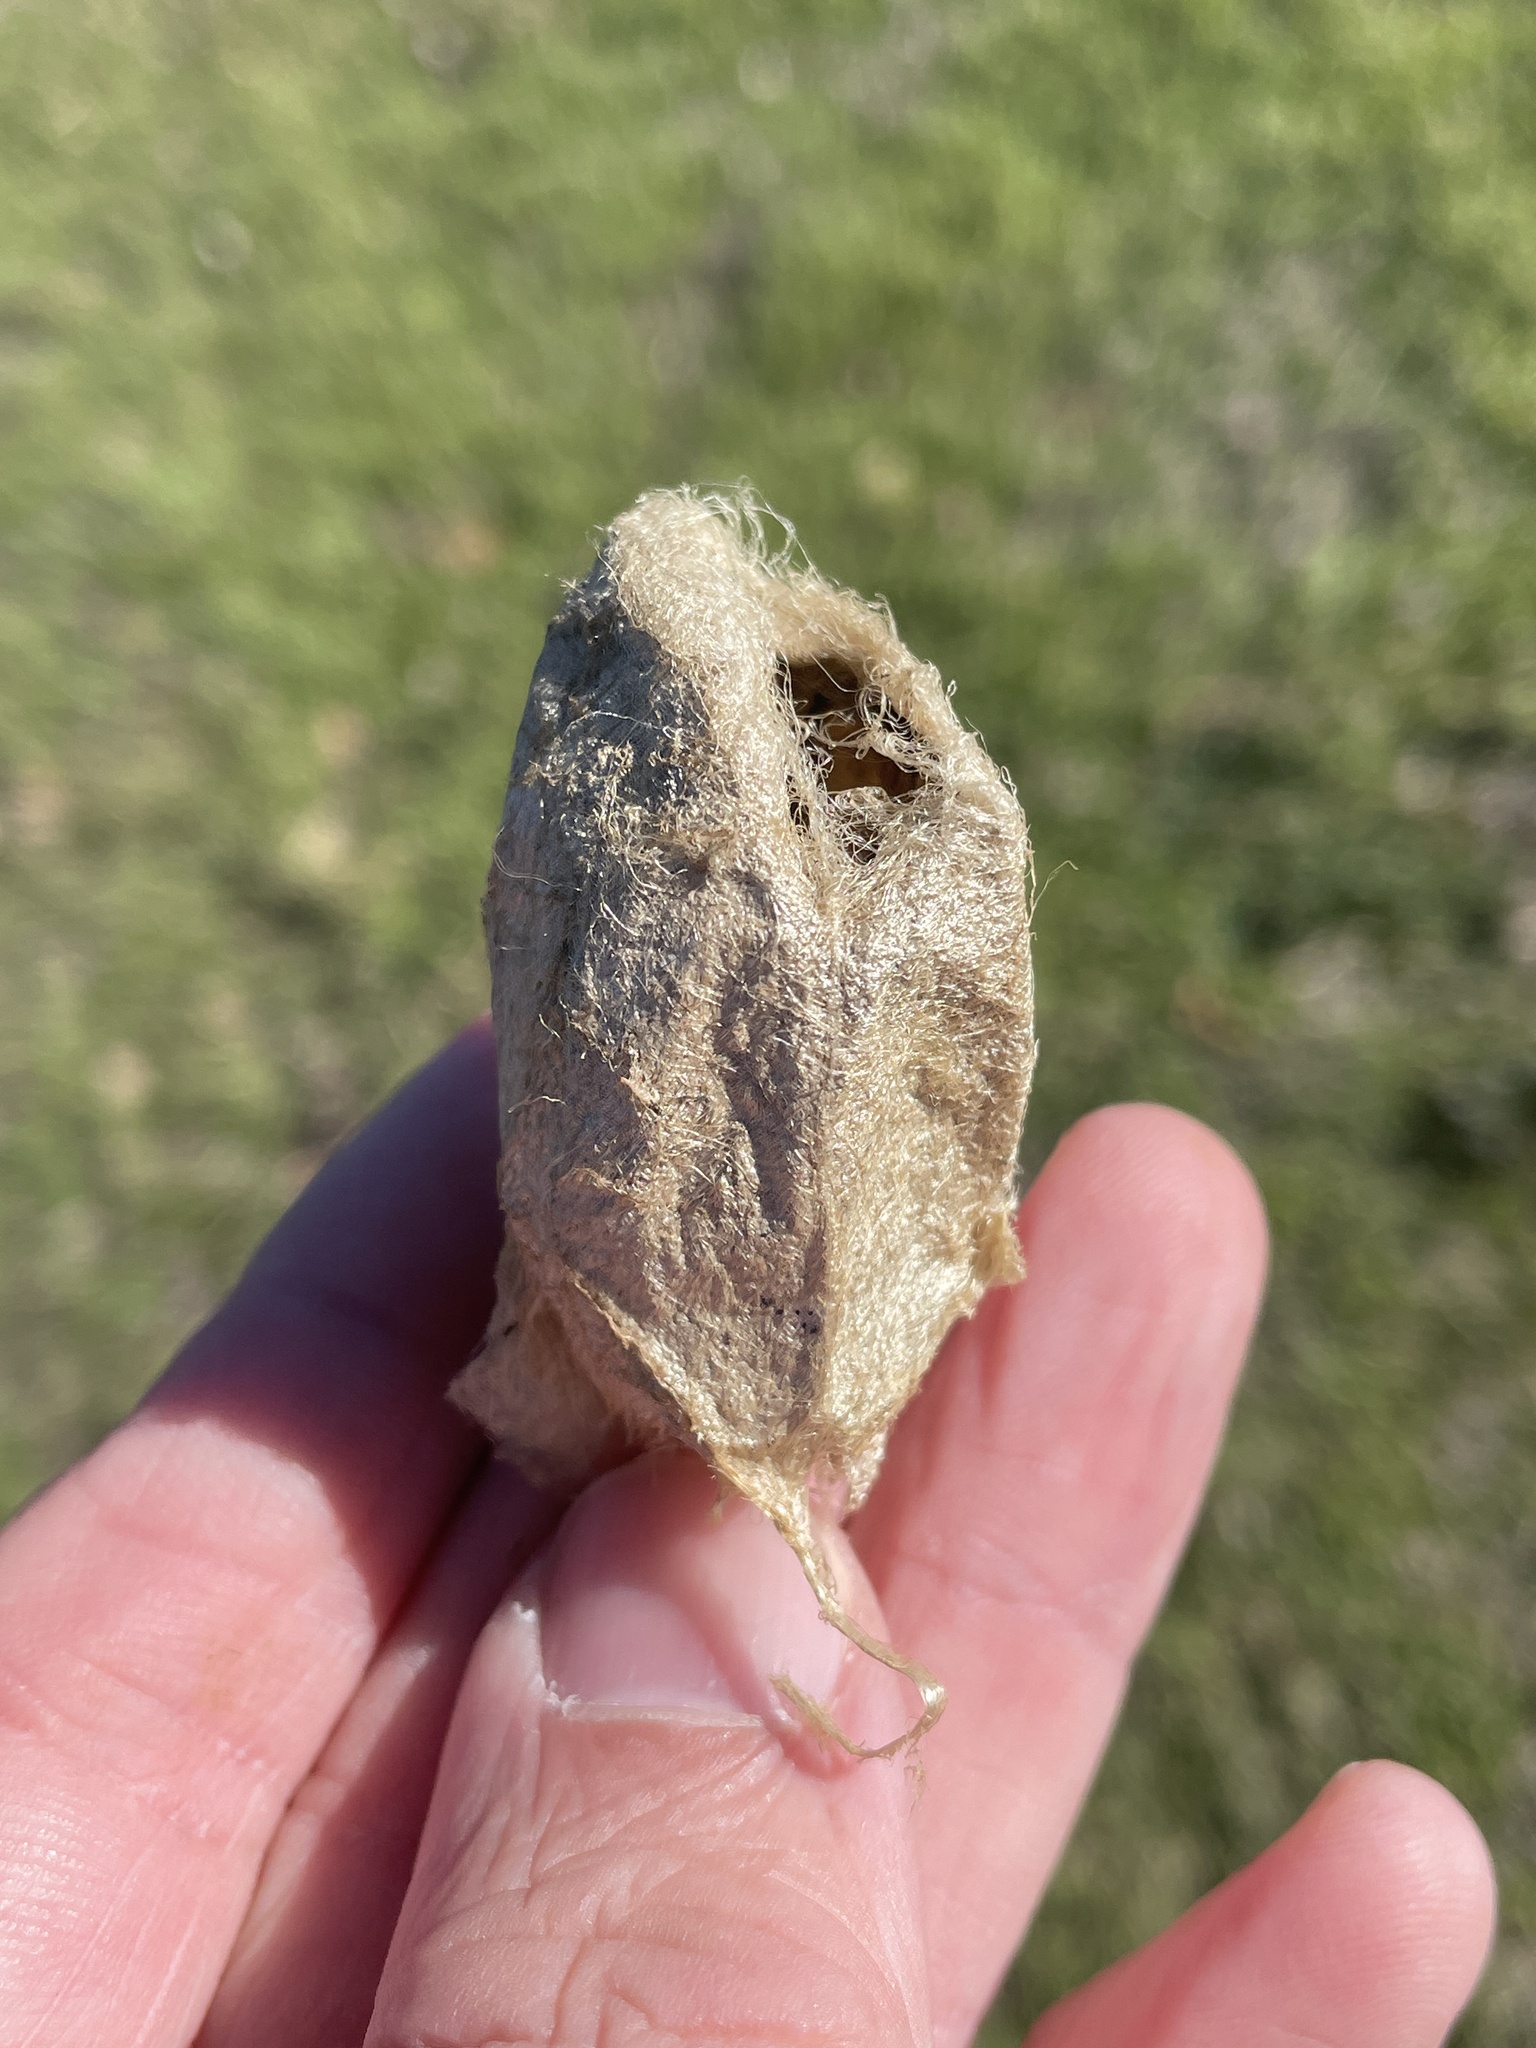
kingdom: Animalia
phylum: Arthropoda
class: Insecta
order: Lepidoptera
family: Saturniidae
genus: Antheraea
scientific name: Antheraea polyphemus
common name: Polyphemus moth
